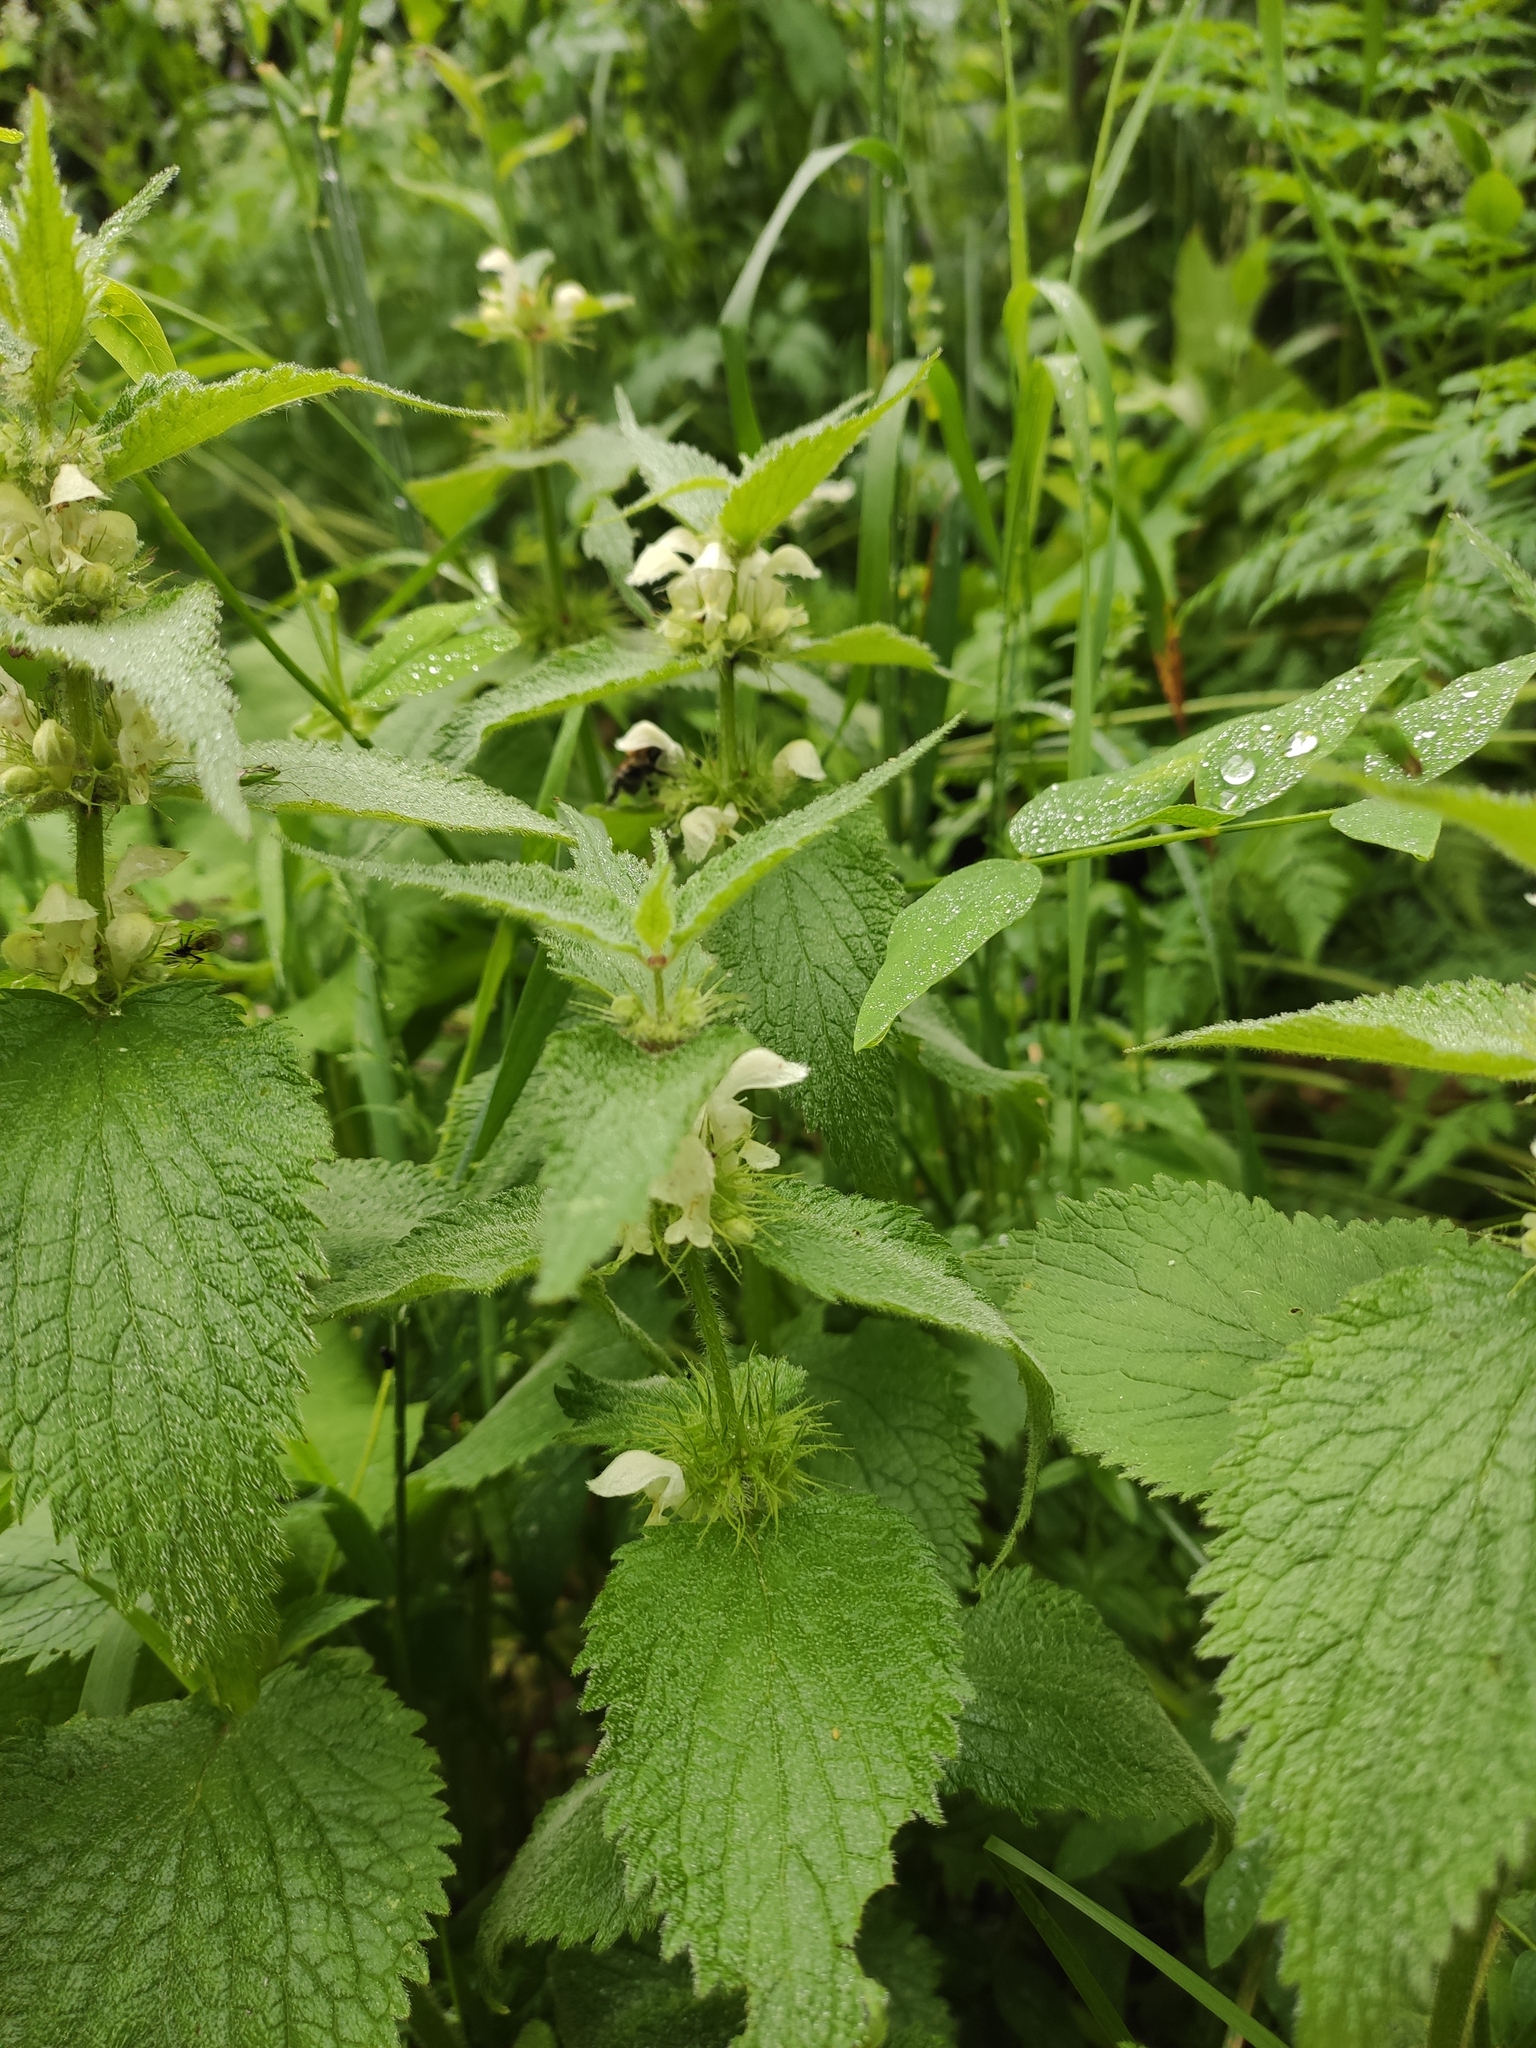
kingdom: Plantae
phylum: Tracheophyta
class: Magnoliopsida
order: Lamiales
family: Lamiaceae
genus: Lamium
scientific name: Lamium album
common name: White dead-nettle
